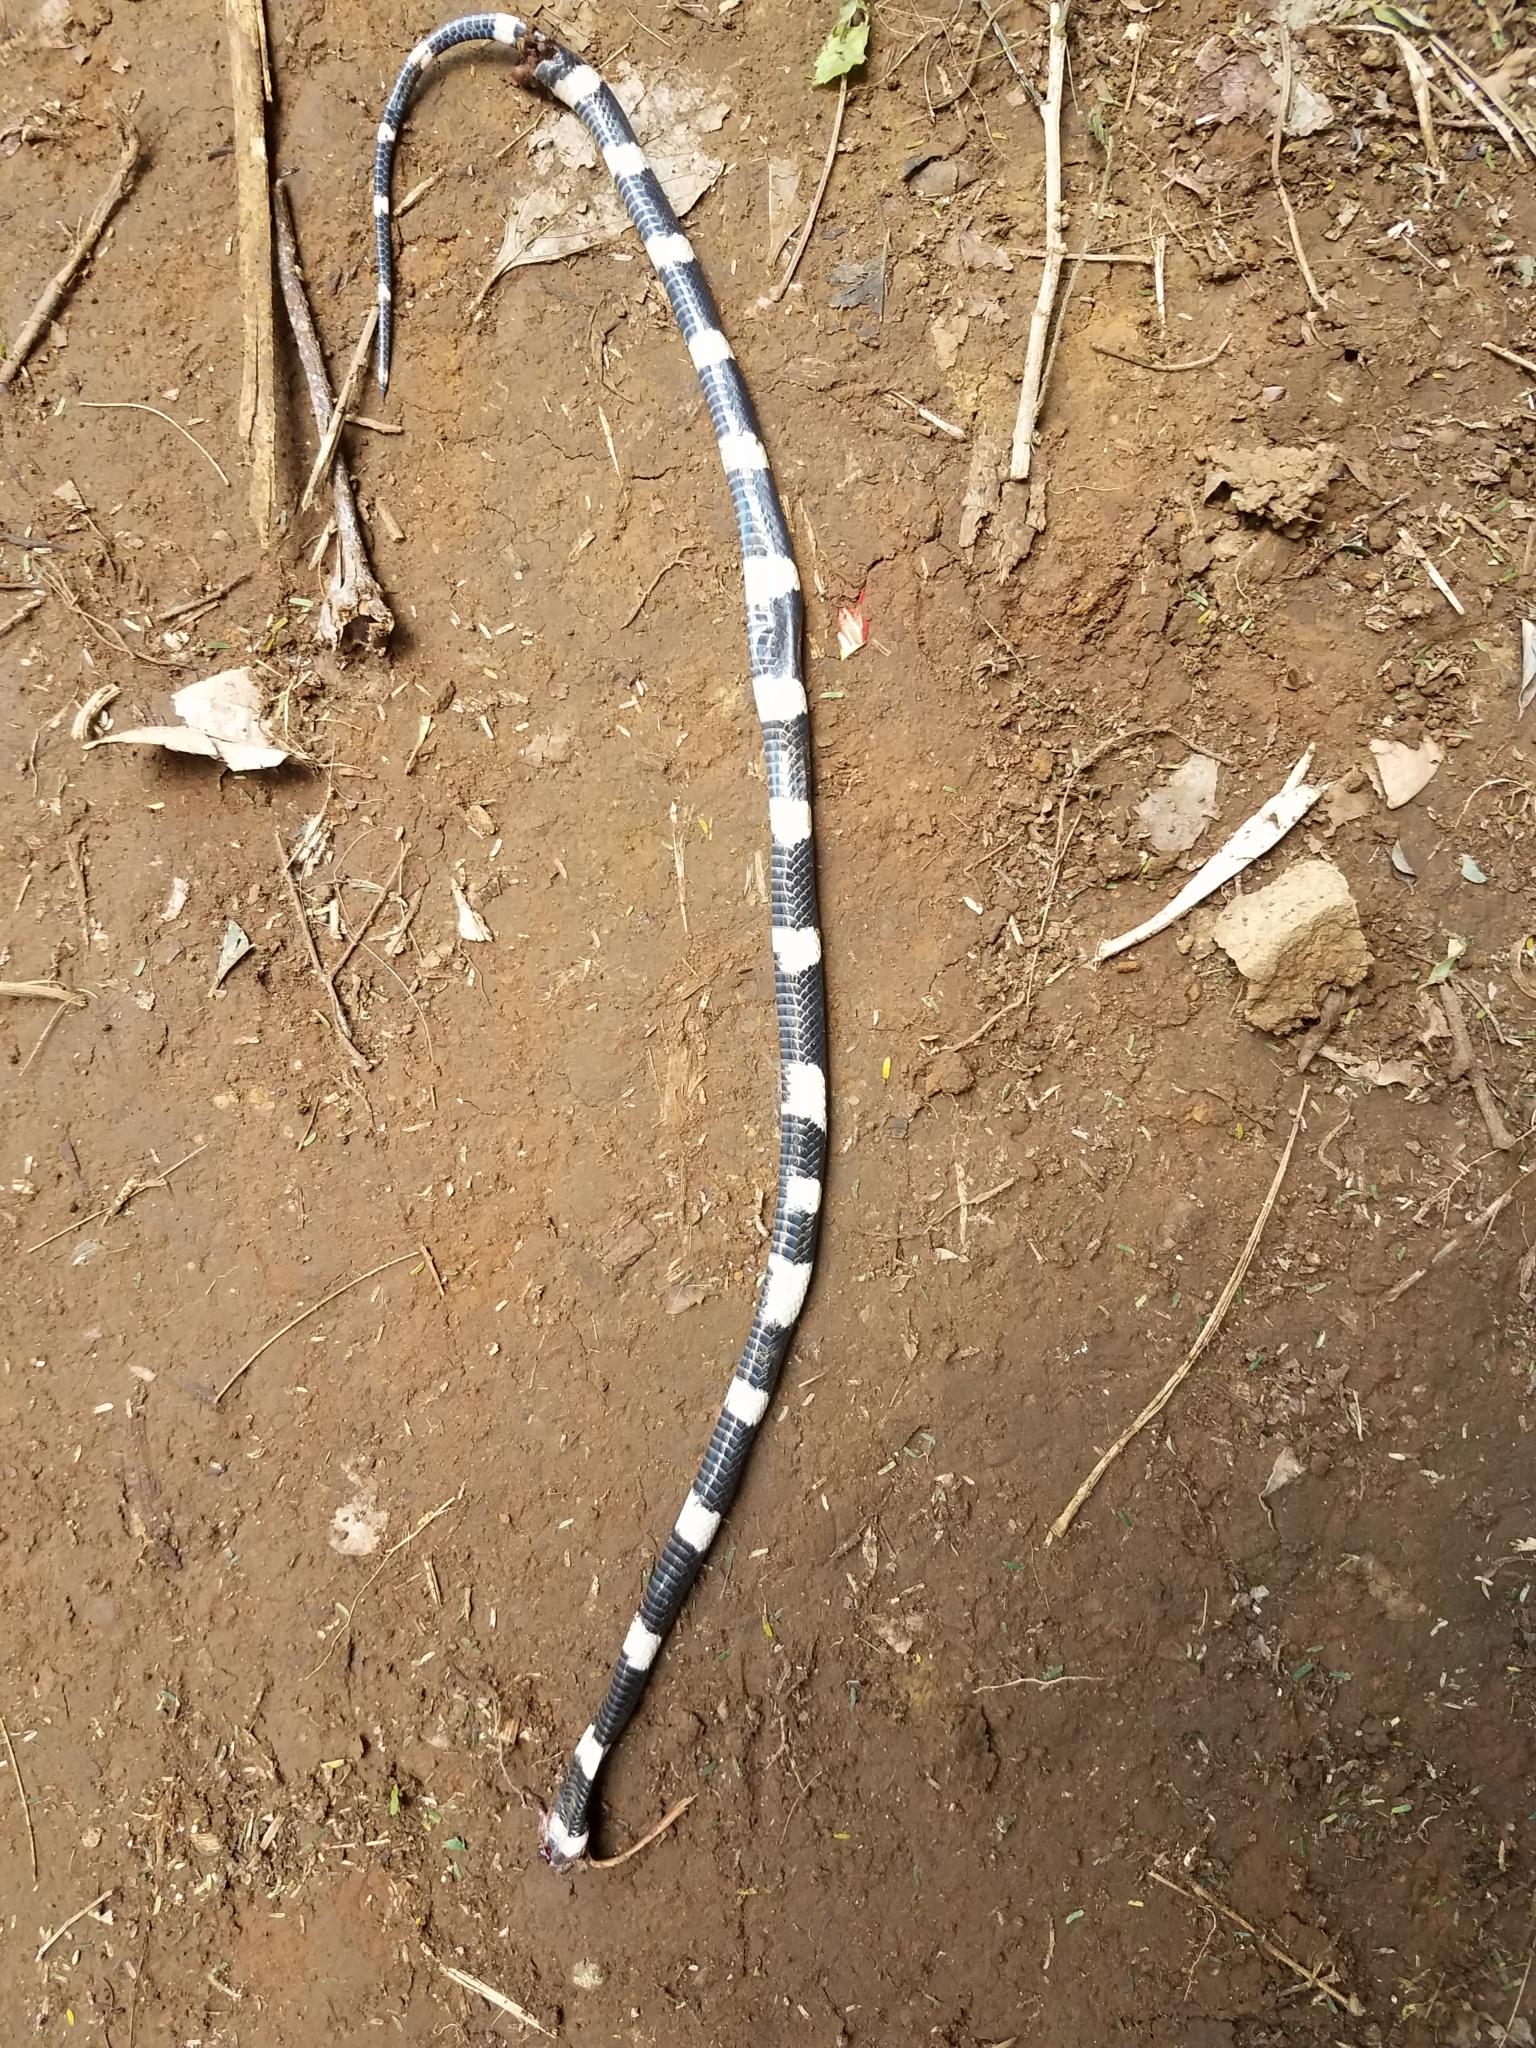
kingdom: Animalia
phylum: Chordata
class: Squamata
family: Colubridae
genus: Geophis
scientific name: Geophis
